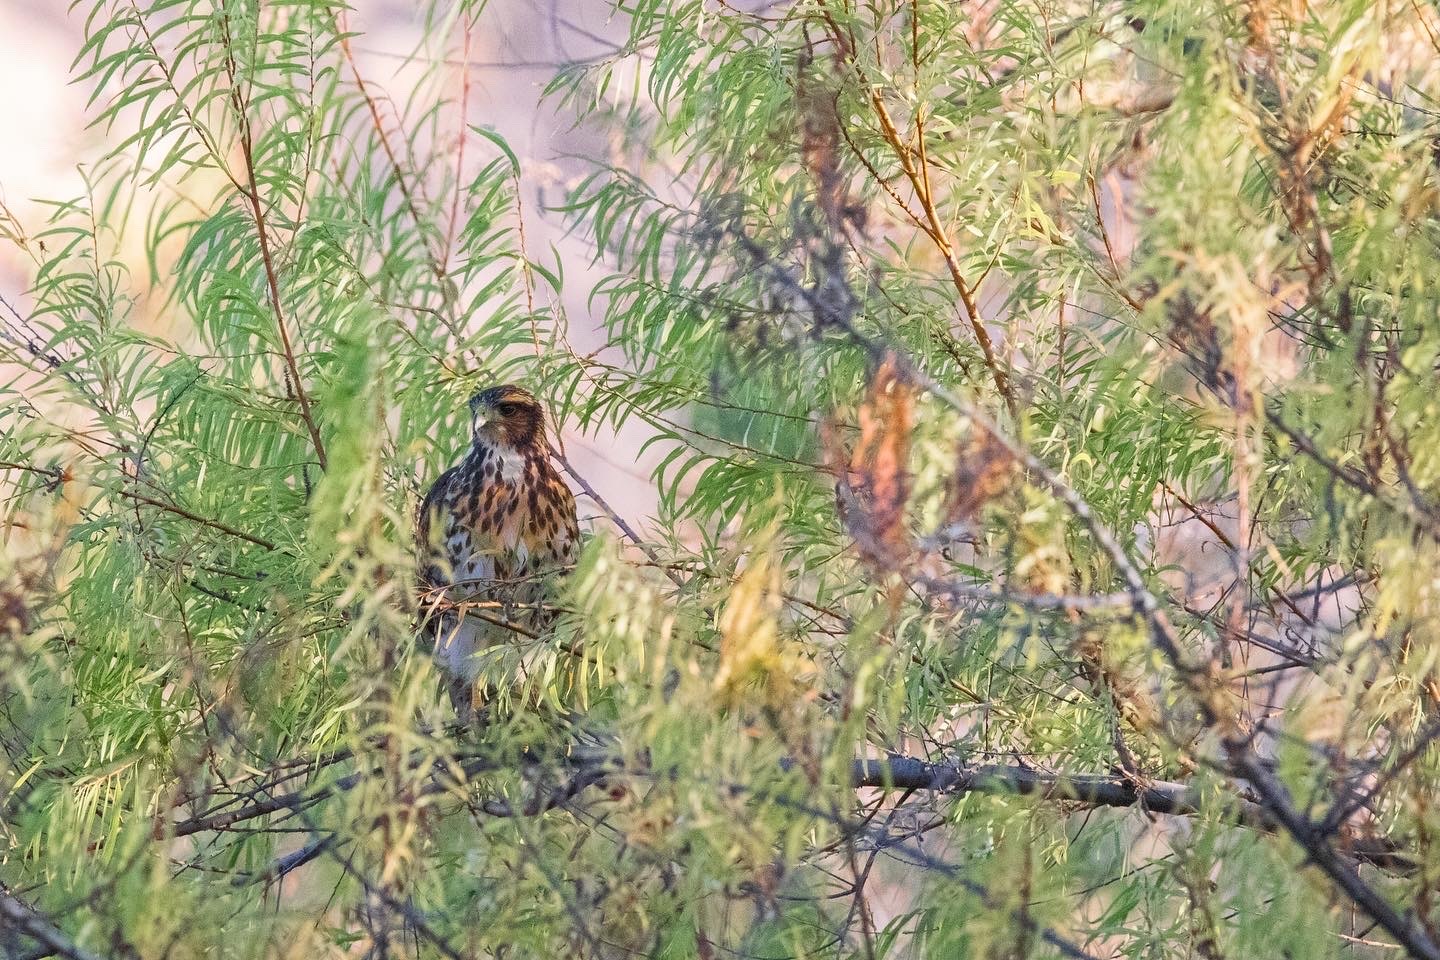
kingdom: Animalia
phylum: Chordata
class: Aves
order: Accipitriformes
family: Accipitridae
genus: Parabuteo
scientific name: Parabuteo unicinctus
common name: Harris's hawk
